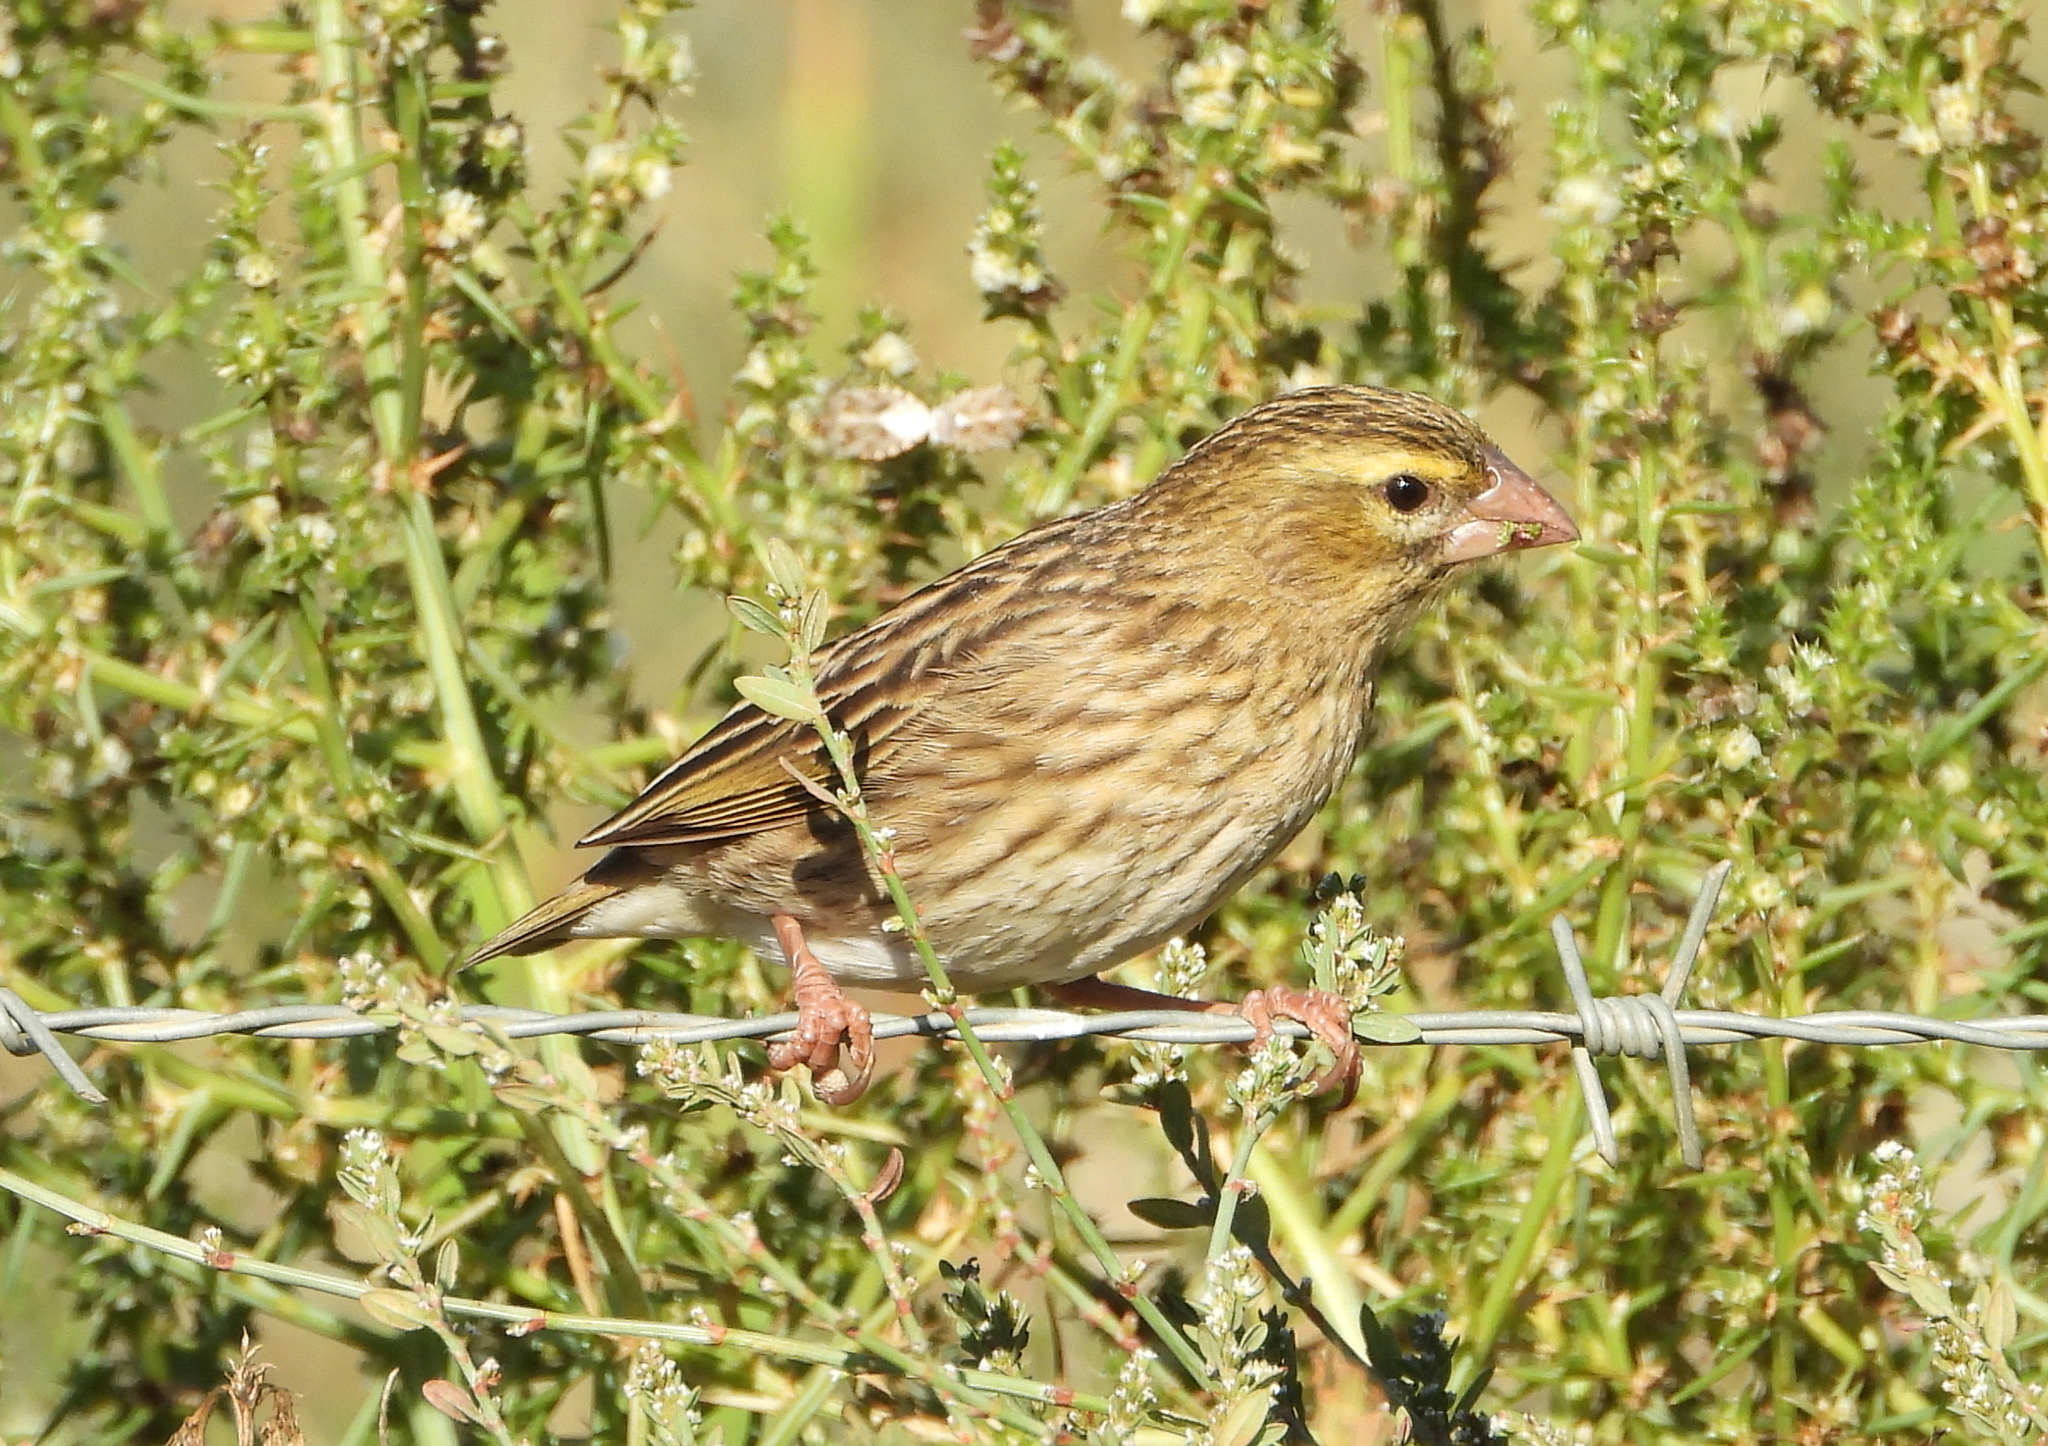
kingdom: Animalia
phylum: Chordata
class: Aves
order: Passeriformes
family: Ploceidae
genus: Euplectes
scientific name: Euplectes orix
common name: Southern red bishop
